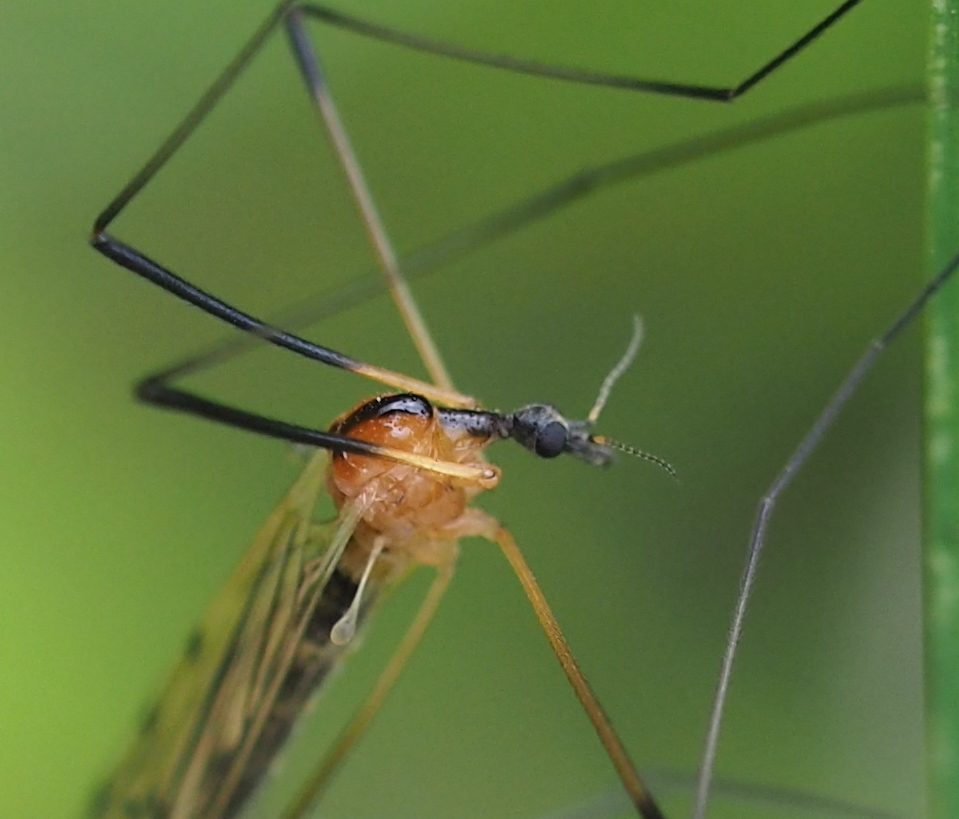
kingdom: Animalia
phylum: Arthropoda
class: Insecta
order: Diptera
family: Limoniidae
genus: Limonia
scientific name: Limonia nigropunctata
